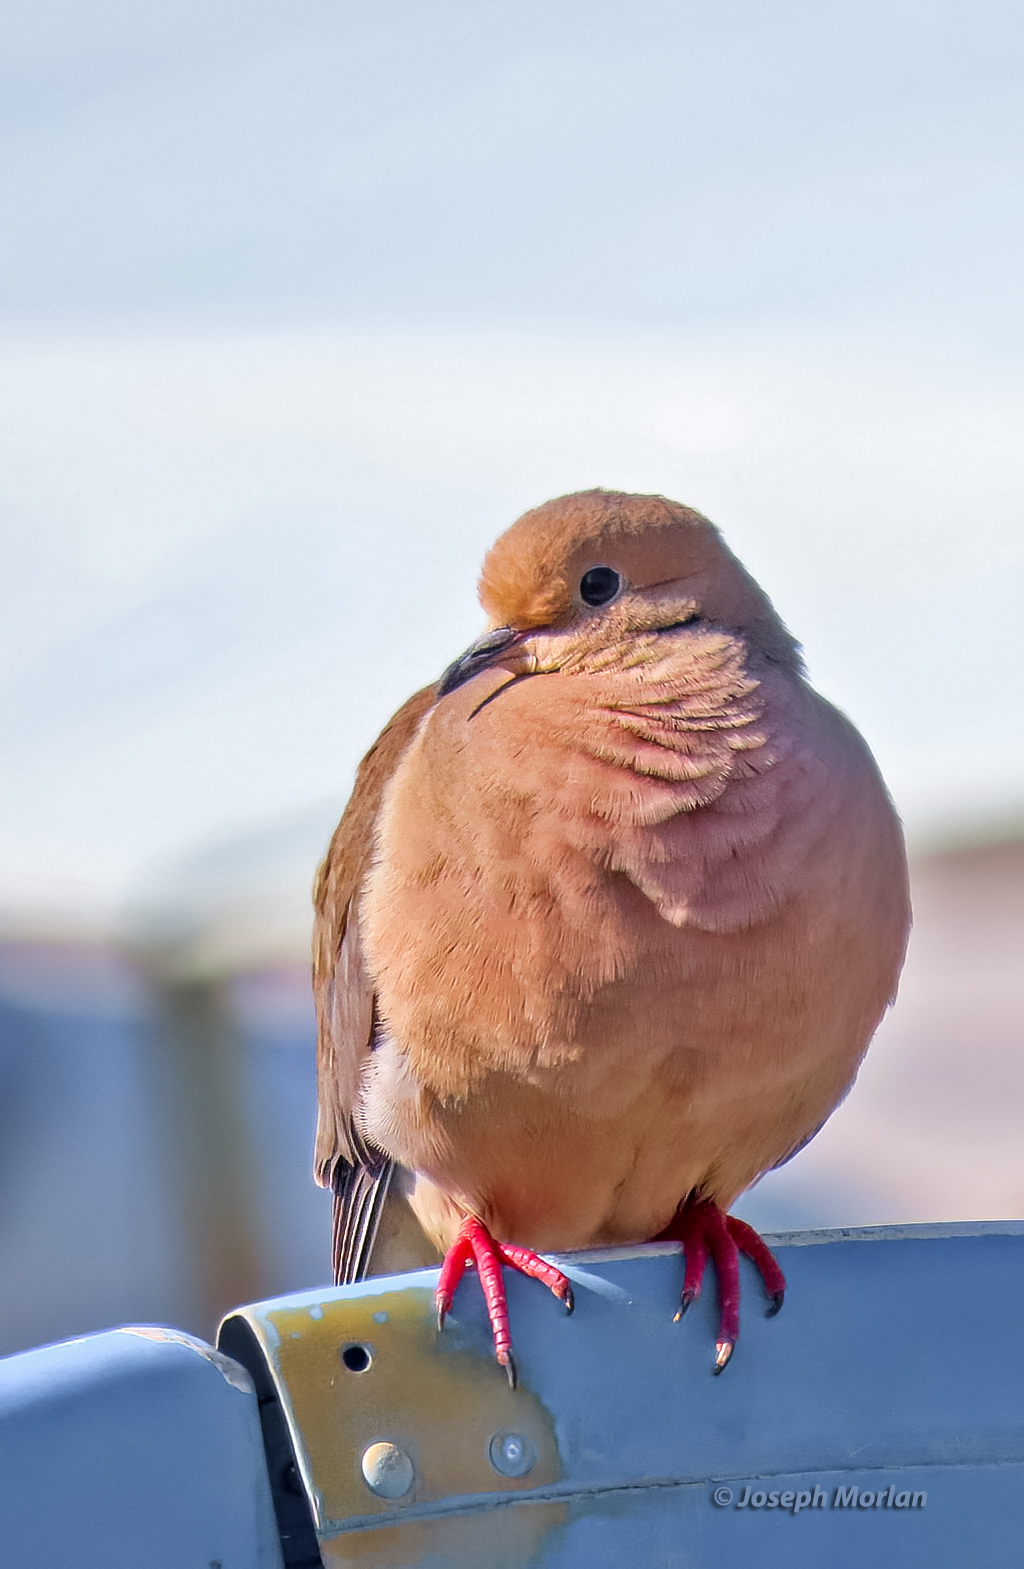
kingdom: Animalia
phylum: Chordata
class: Aves
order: Columbiformes
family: Columbidae
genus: Zenaida
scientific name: Zenaida macroura
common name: Mourning dove
